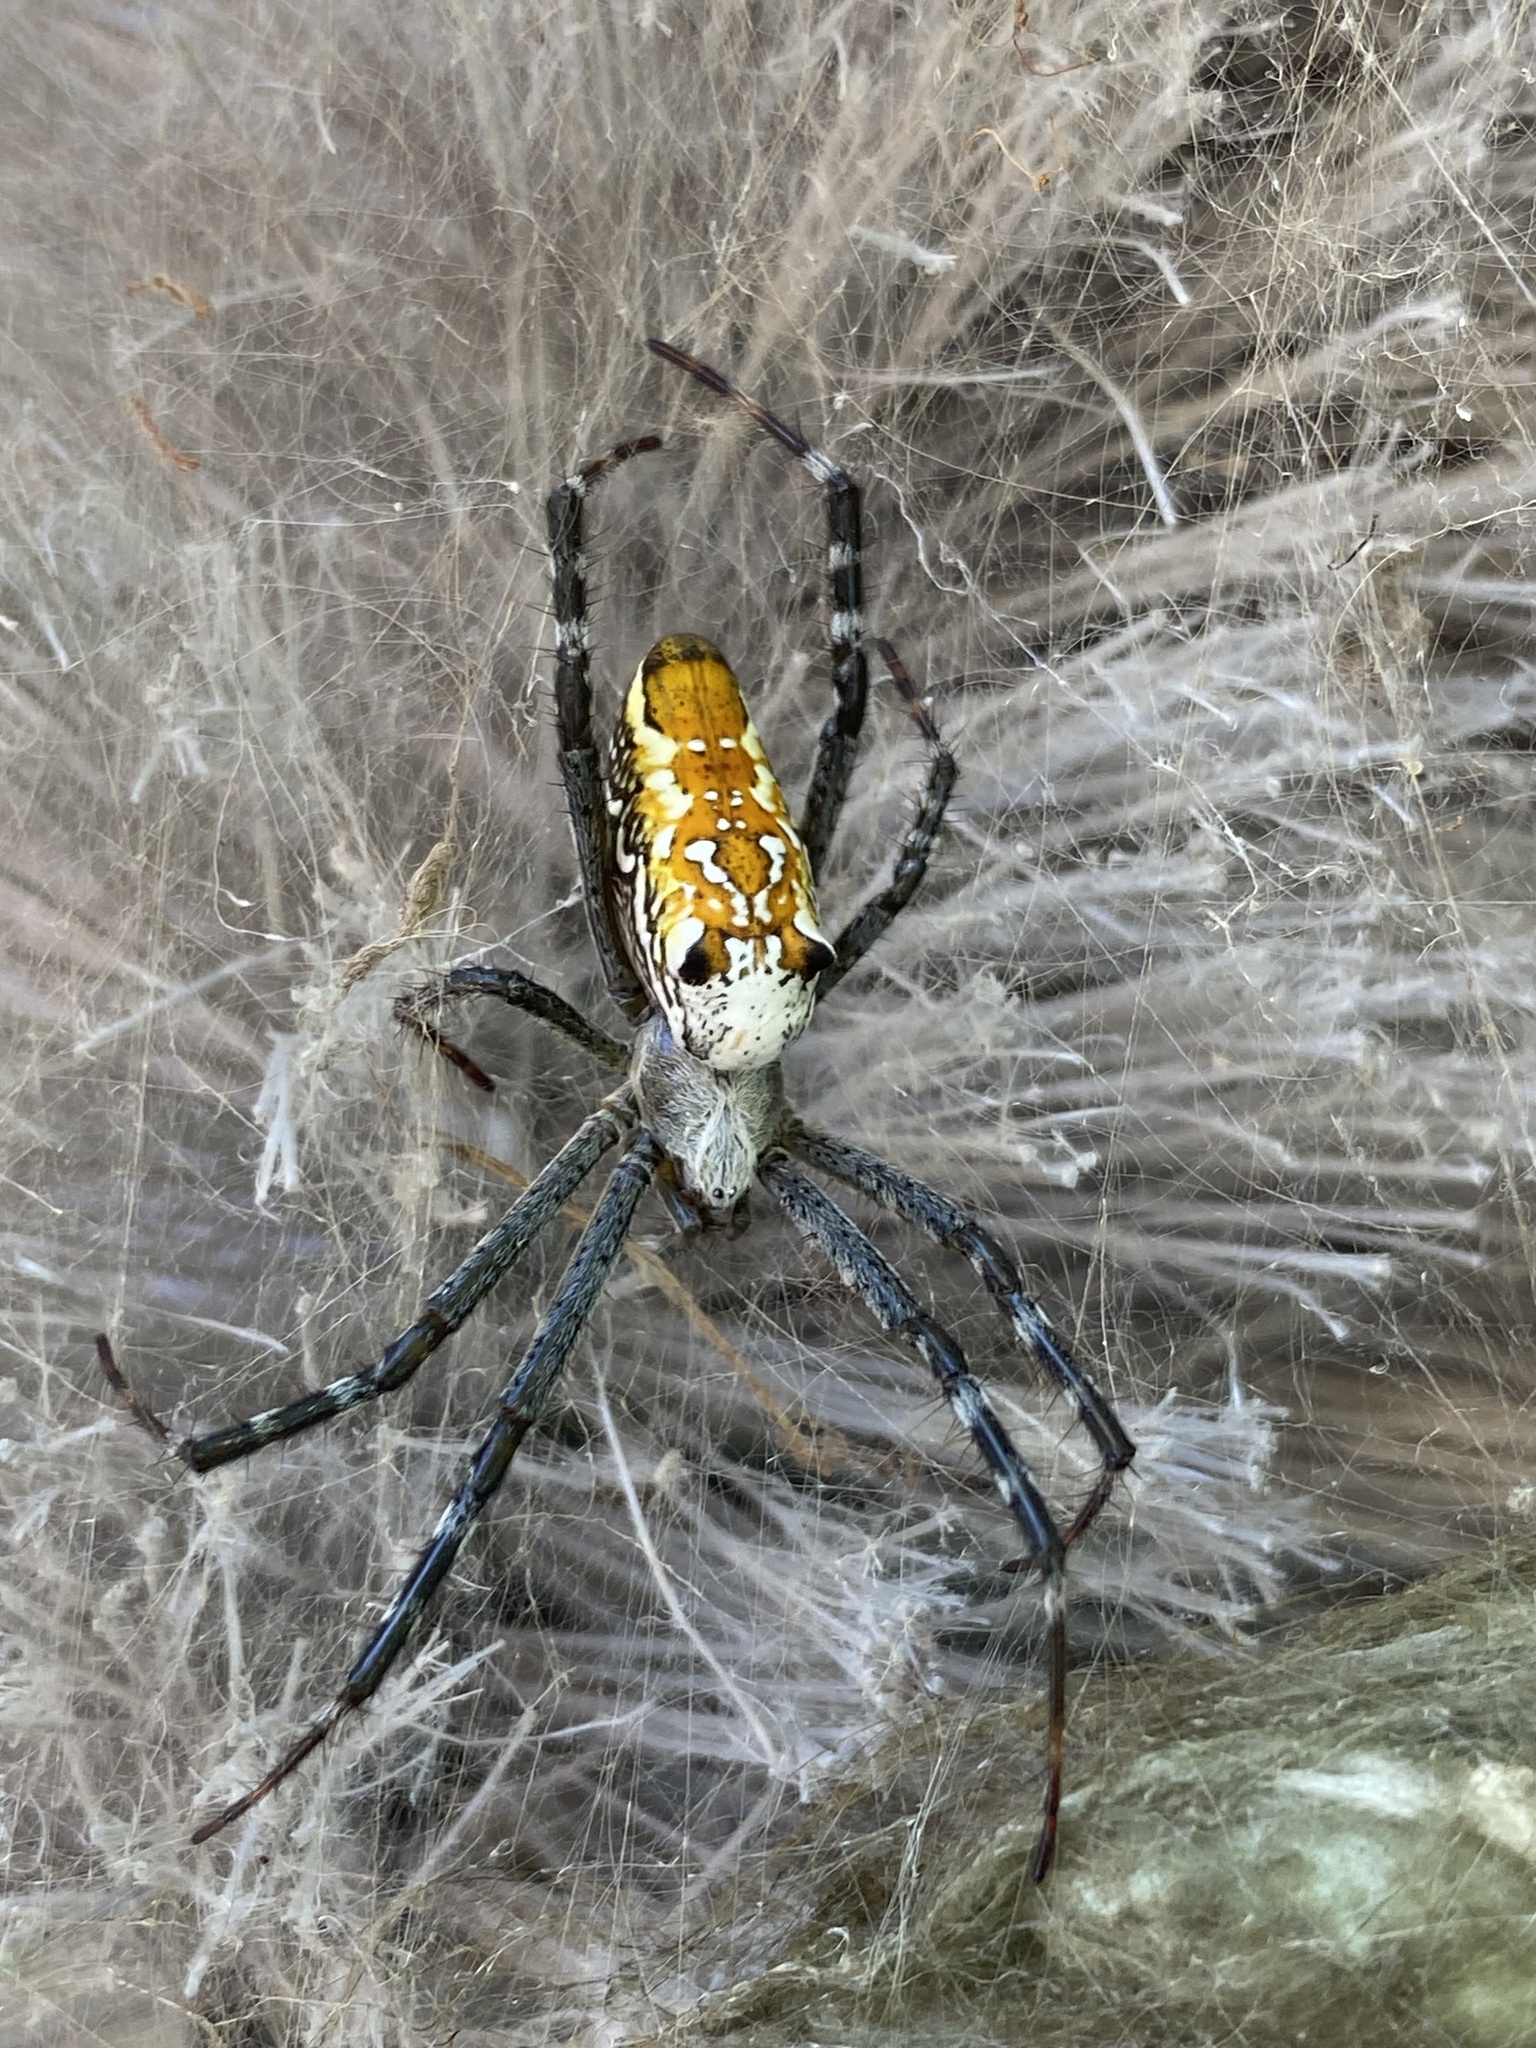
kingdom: Chromista
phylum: Ochrophyta
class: Dictyochophyceae
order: Pedinellales
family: Cyrtophoraceae
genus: Cyrtophora
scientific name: Cyrtophora moluccensis
